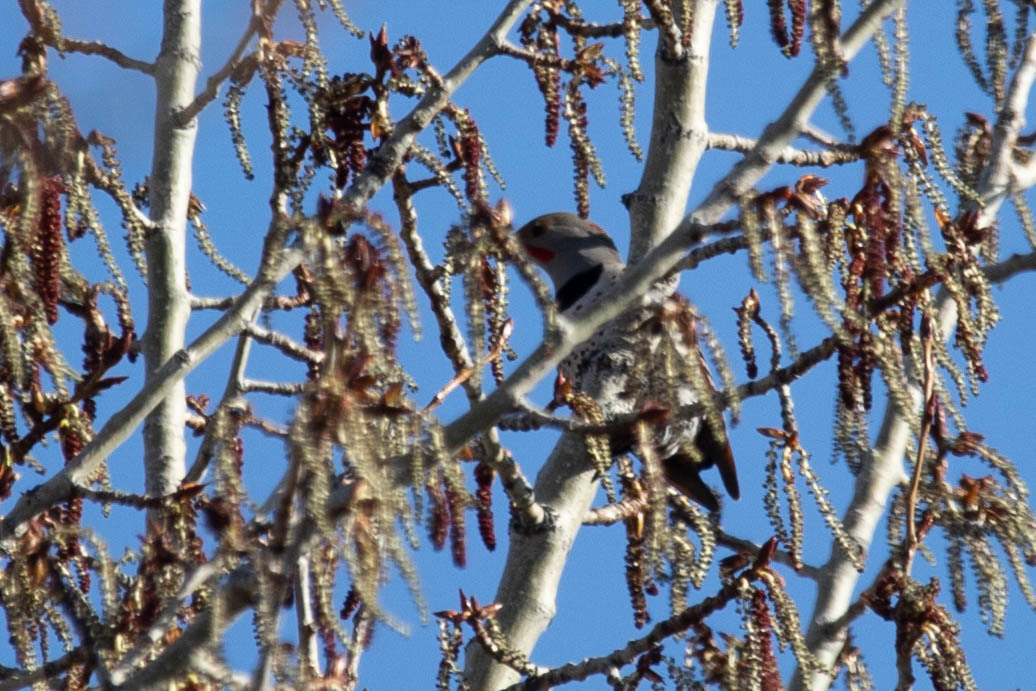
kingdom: Animalia
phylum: Chordata
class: Aves
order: Piciformes
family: Picidae
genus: Colaptes
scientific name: Colaptes auratus
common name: Northern flicker
